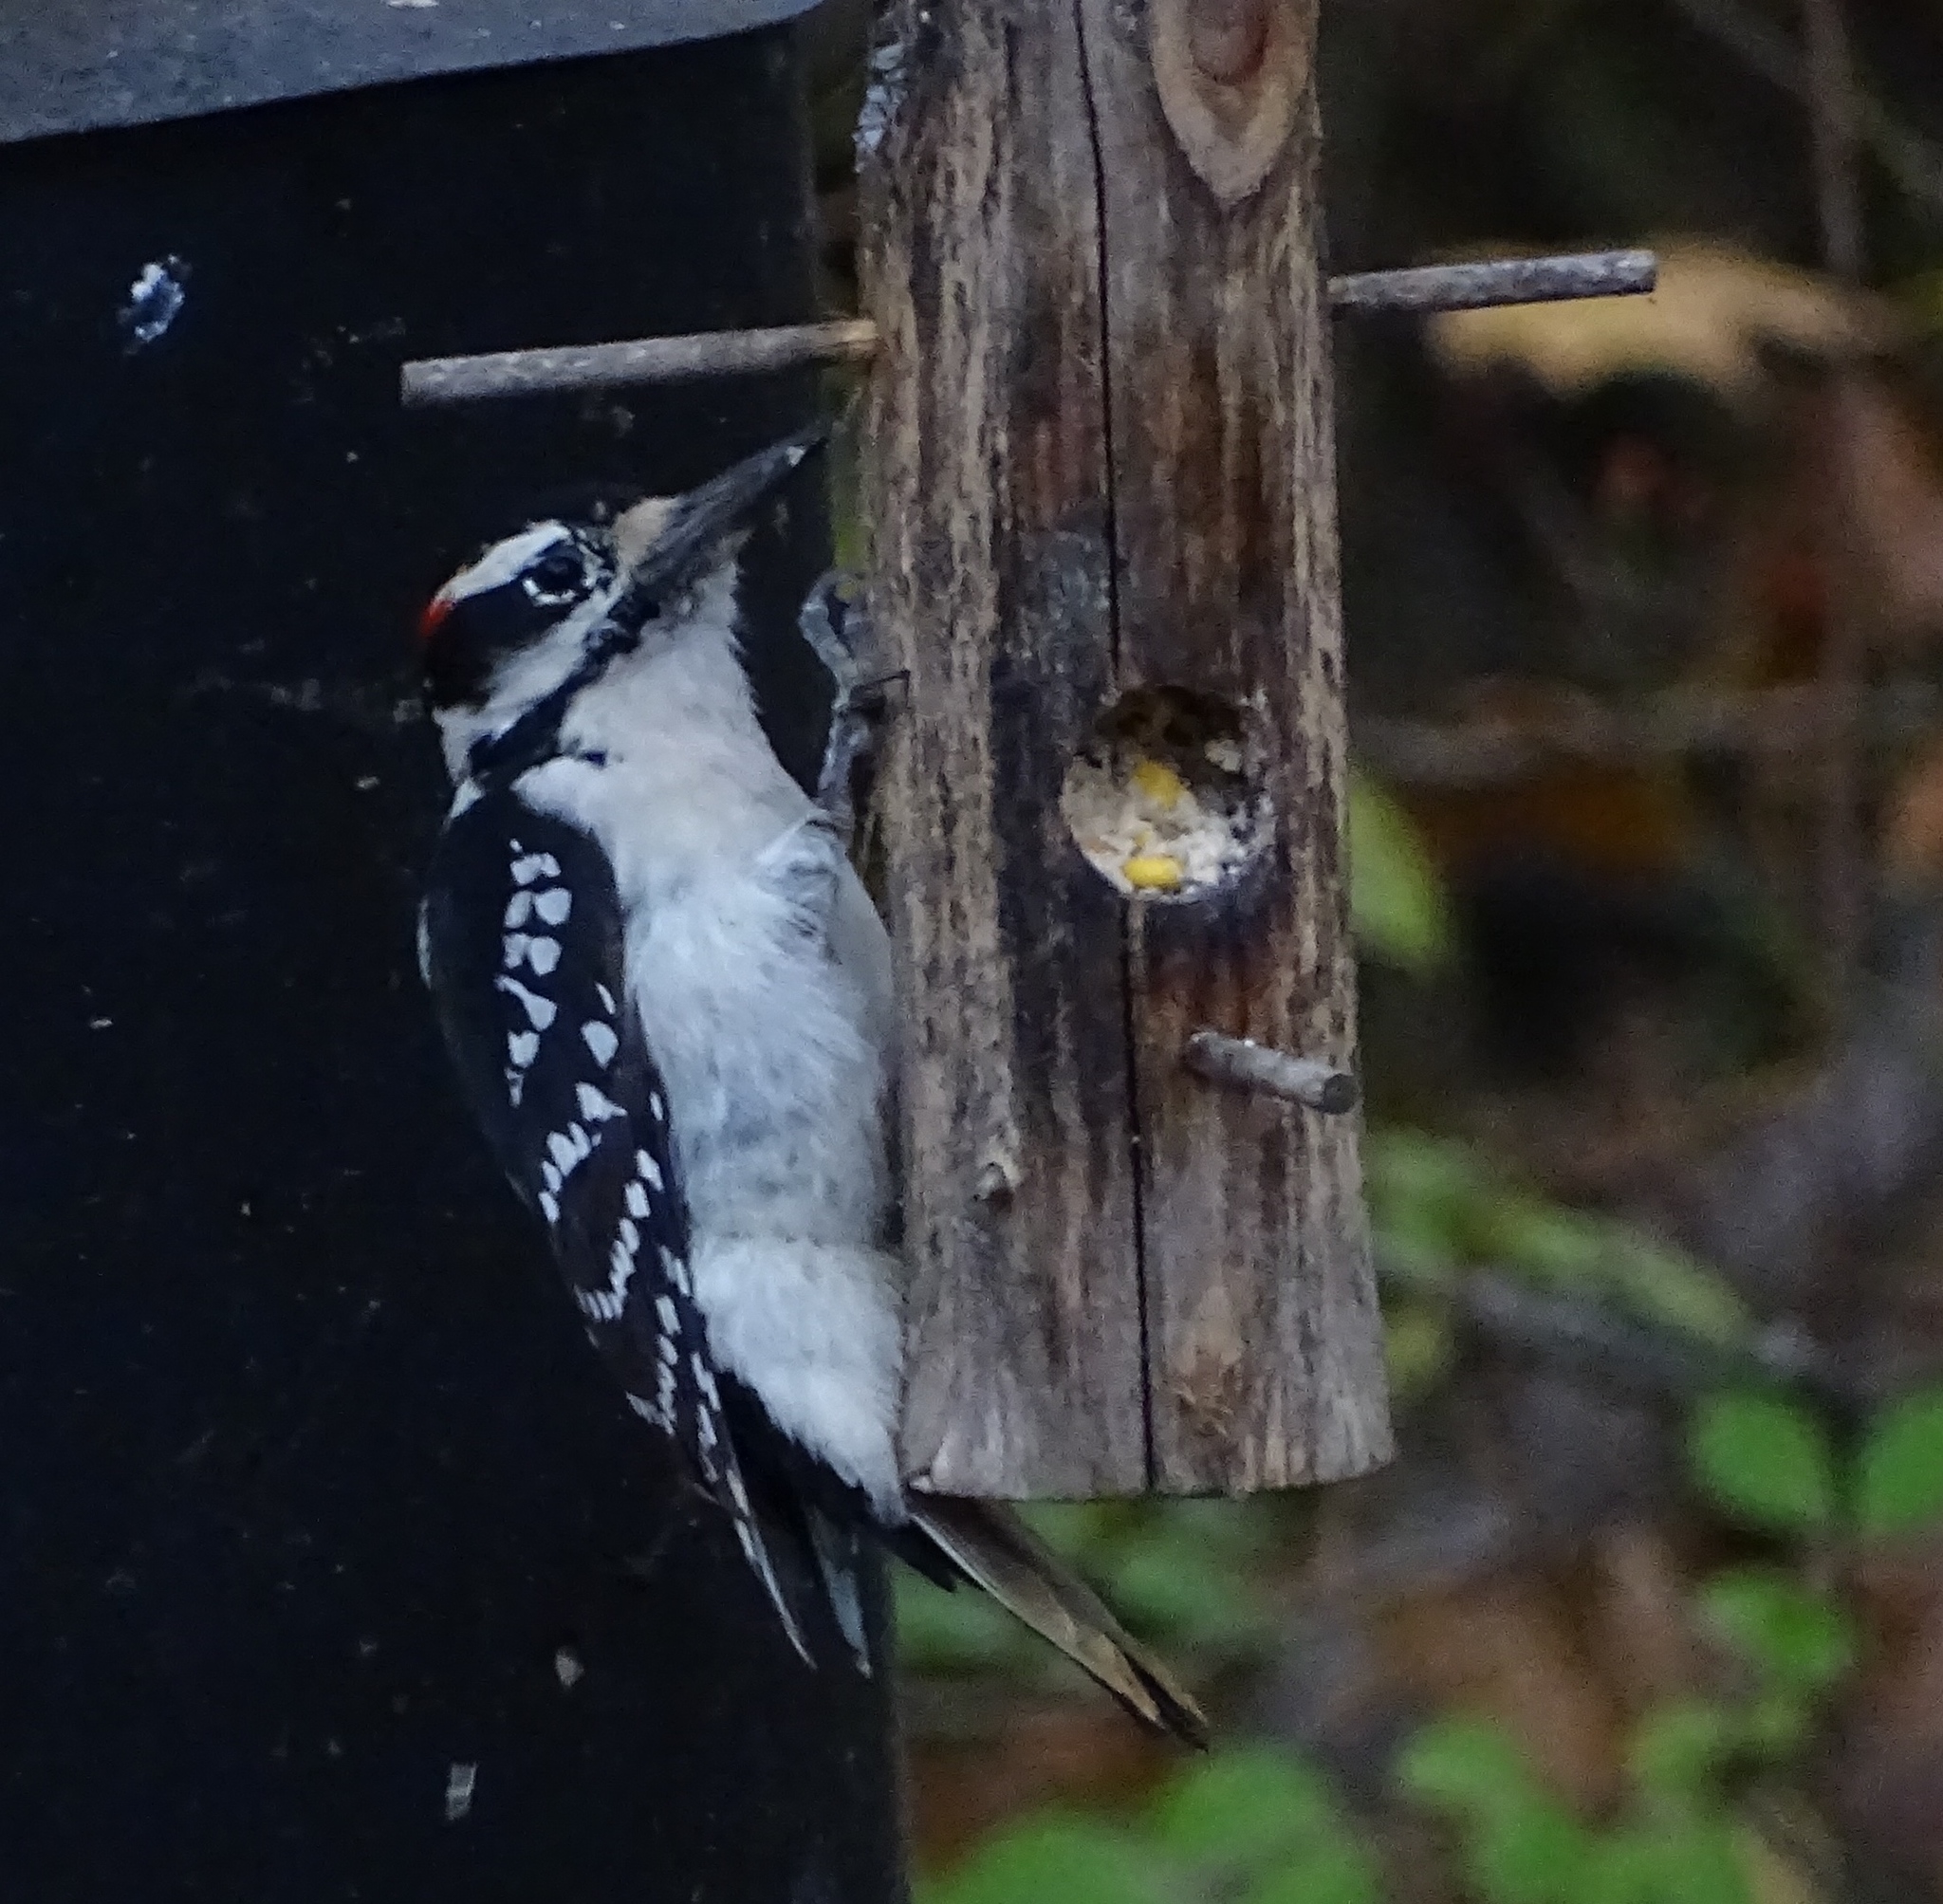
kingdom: Animalia
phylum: Chordata
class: Aves
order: Piciformes
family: Picidae
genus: Leuconotopicus
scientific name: Leuconotopicus villosus
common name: Hairy woodpecker
